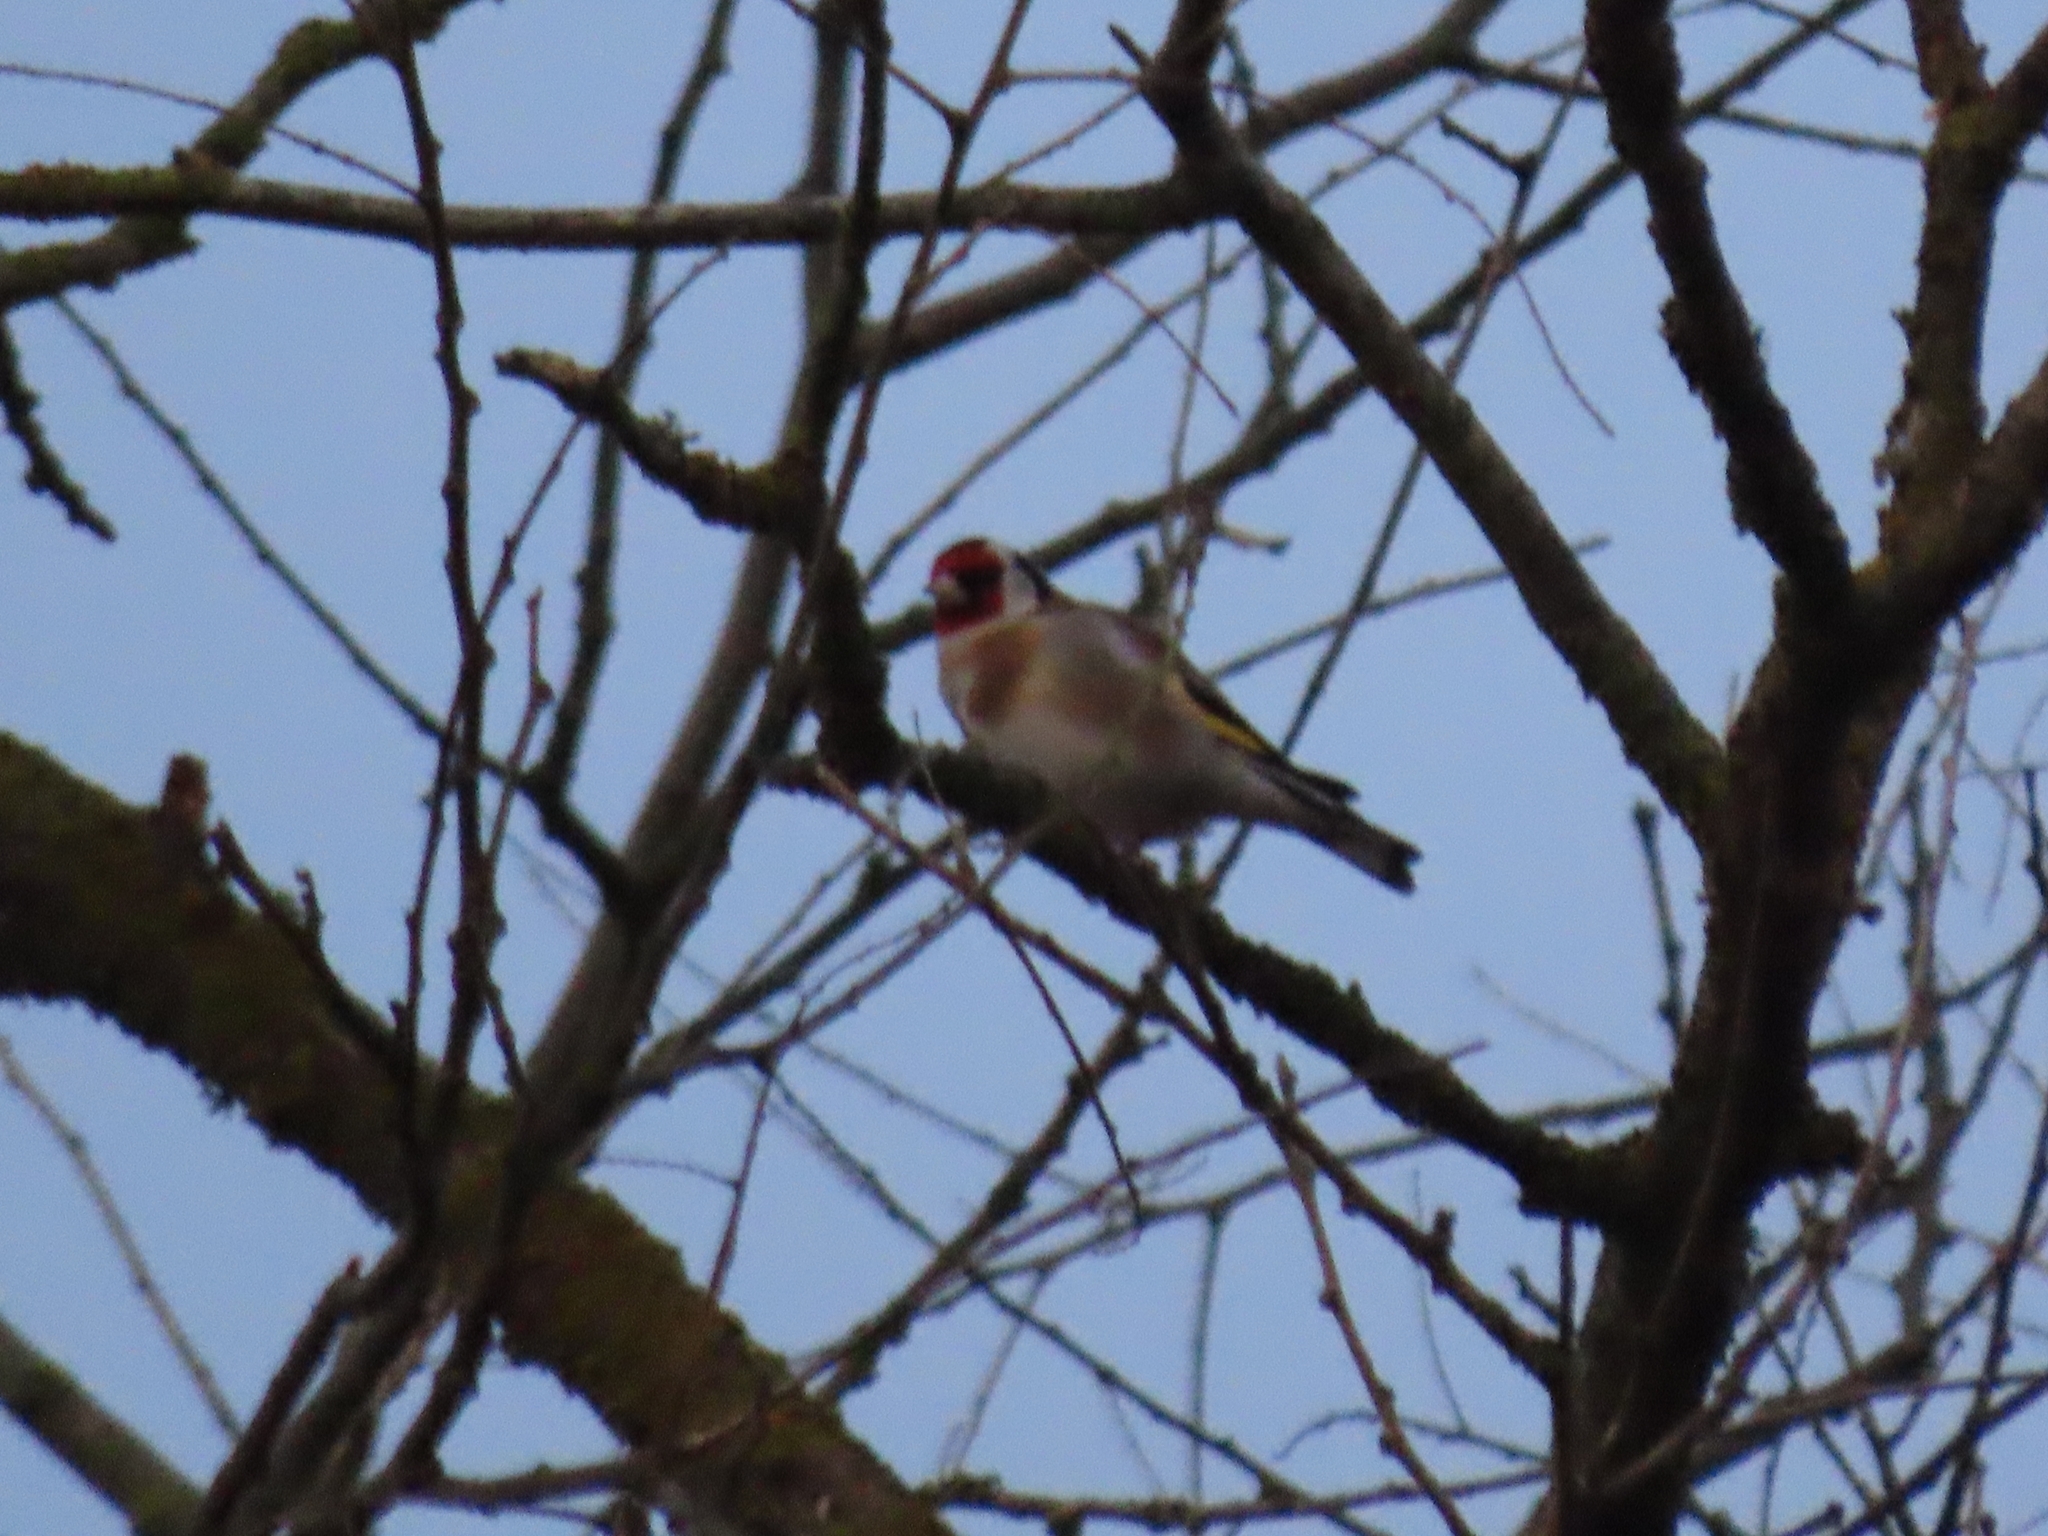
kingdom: Animalia
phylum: Chordata
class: Aves
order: Passeriformes
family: Fringillidae
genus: Carduelis
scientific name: Carduelis carduelis
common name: European goldfinch
